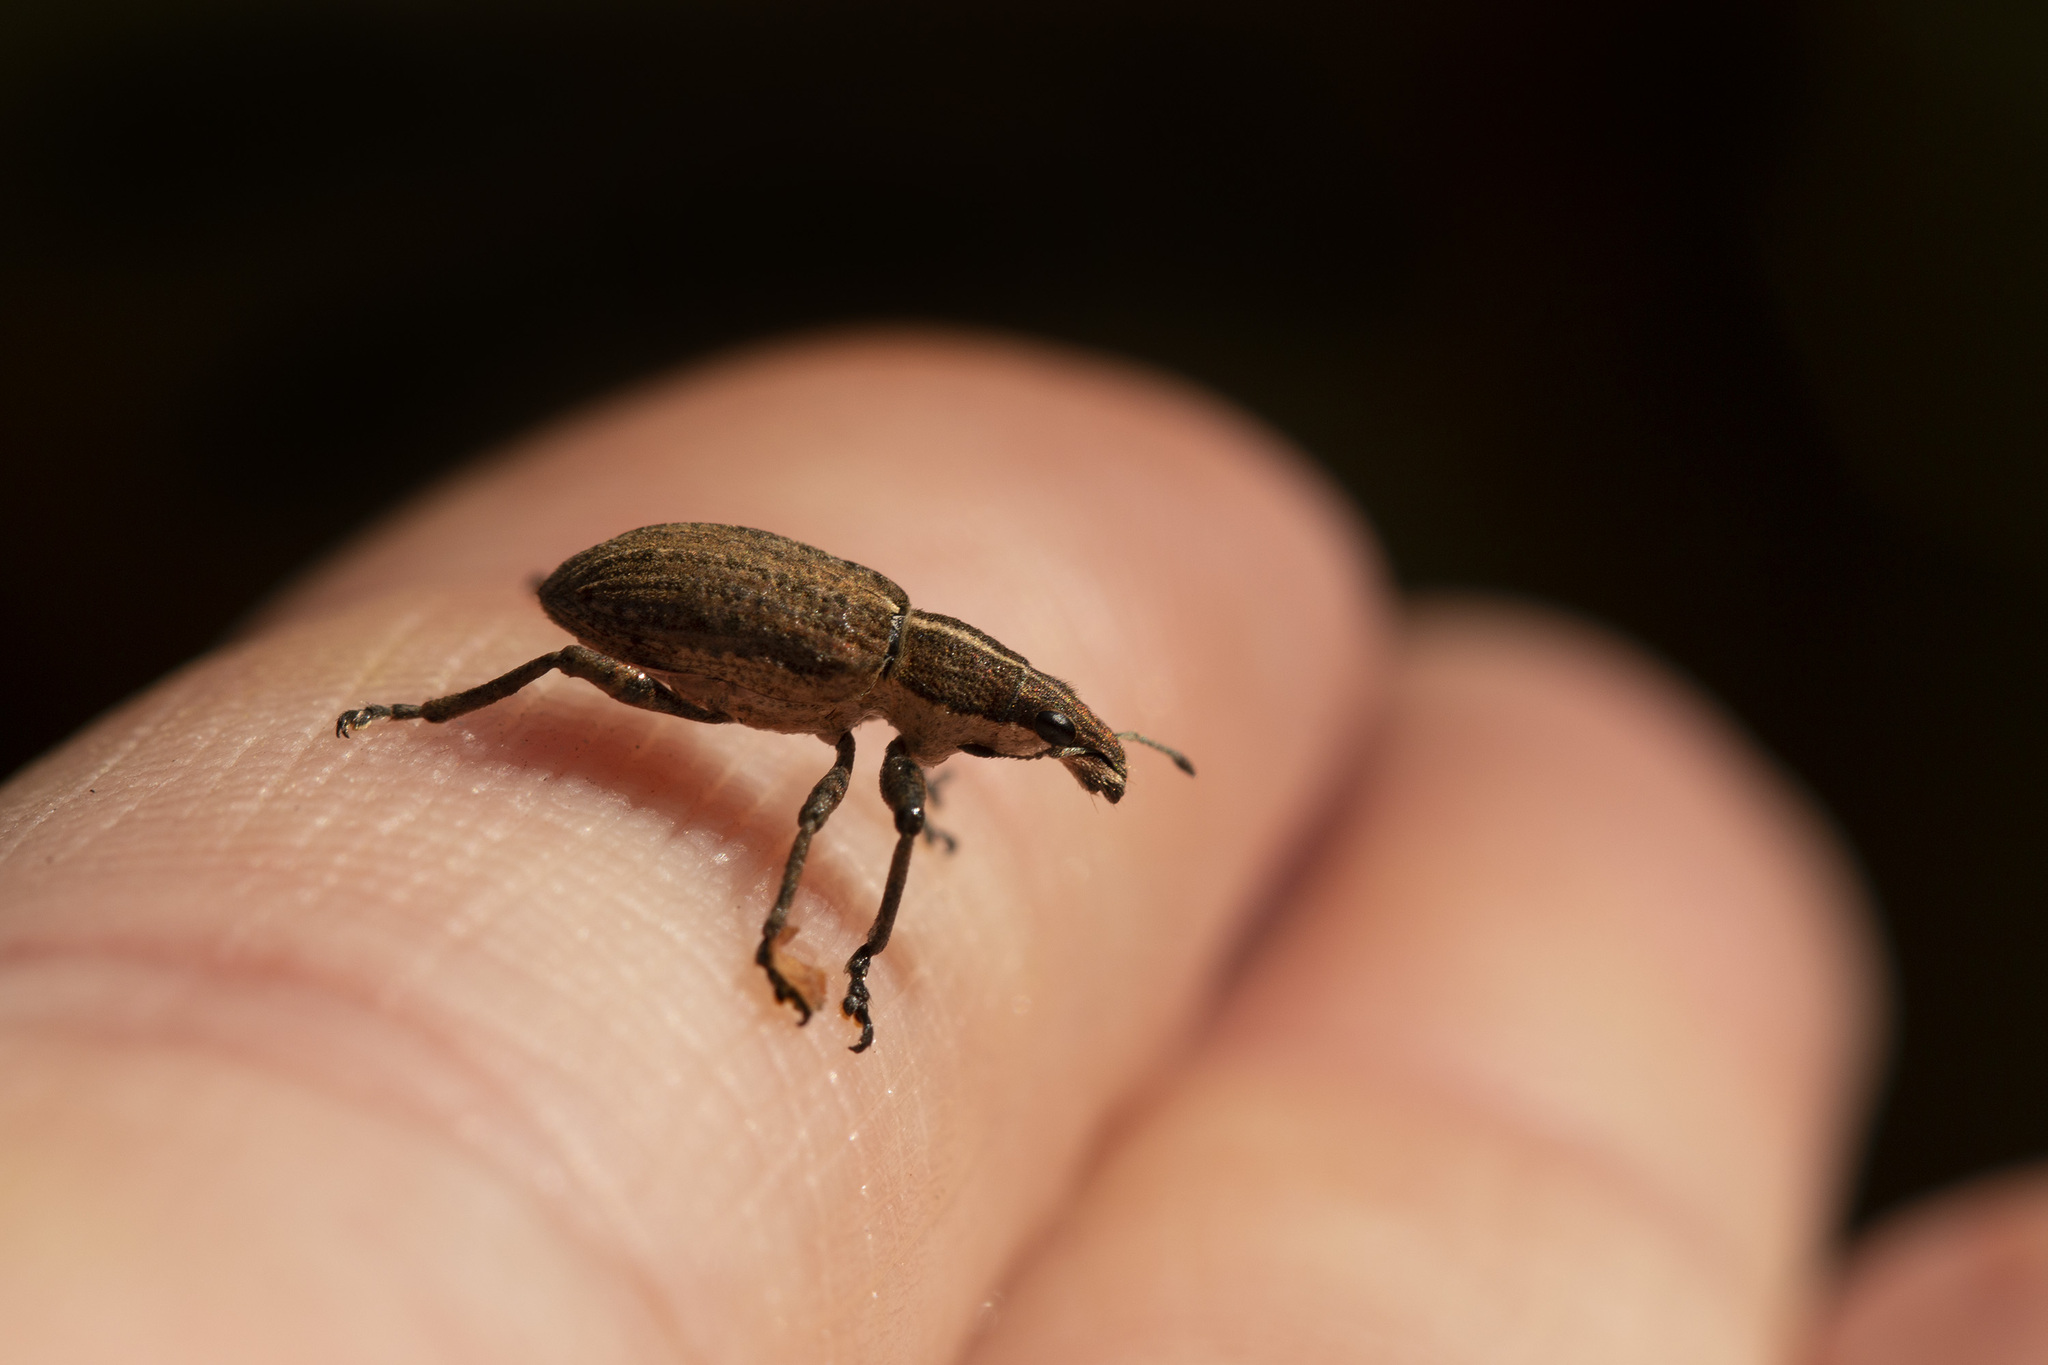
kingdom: Animalia
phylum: Arthropoda
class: Insecta
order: Coleoptera
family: Curculionidae
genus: Charagmus
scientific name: Charagmus gressorius
